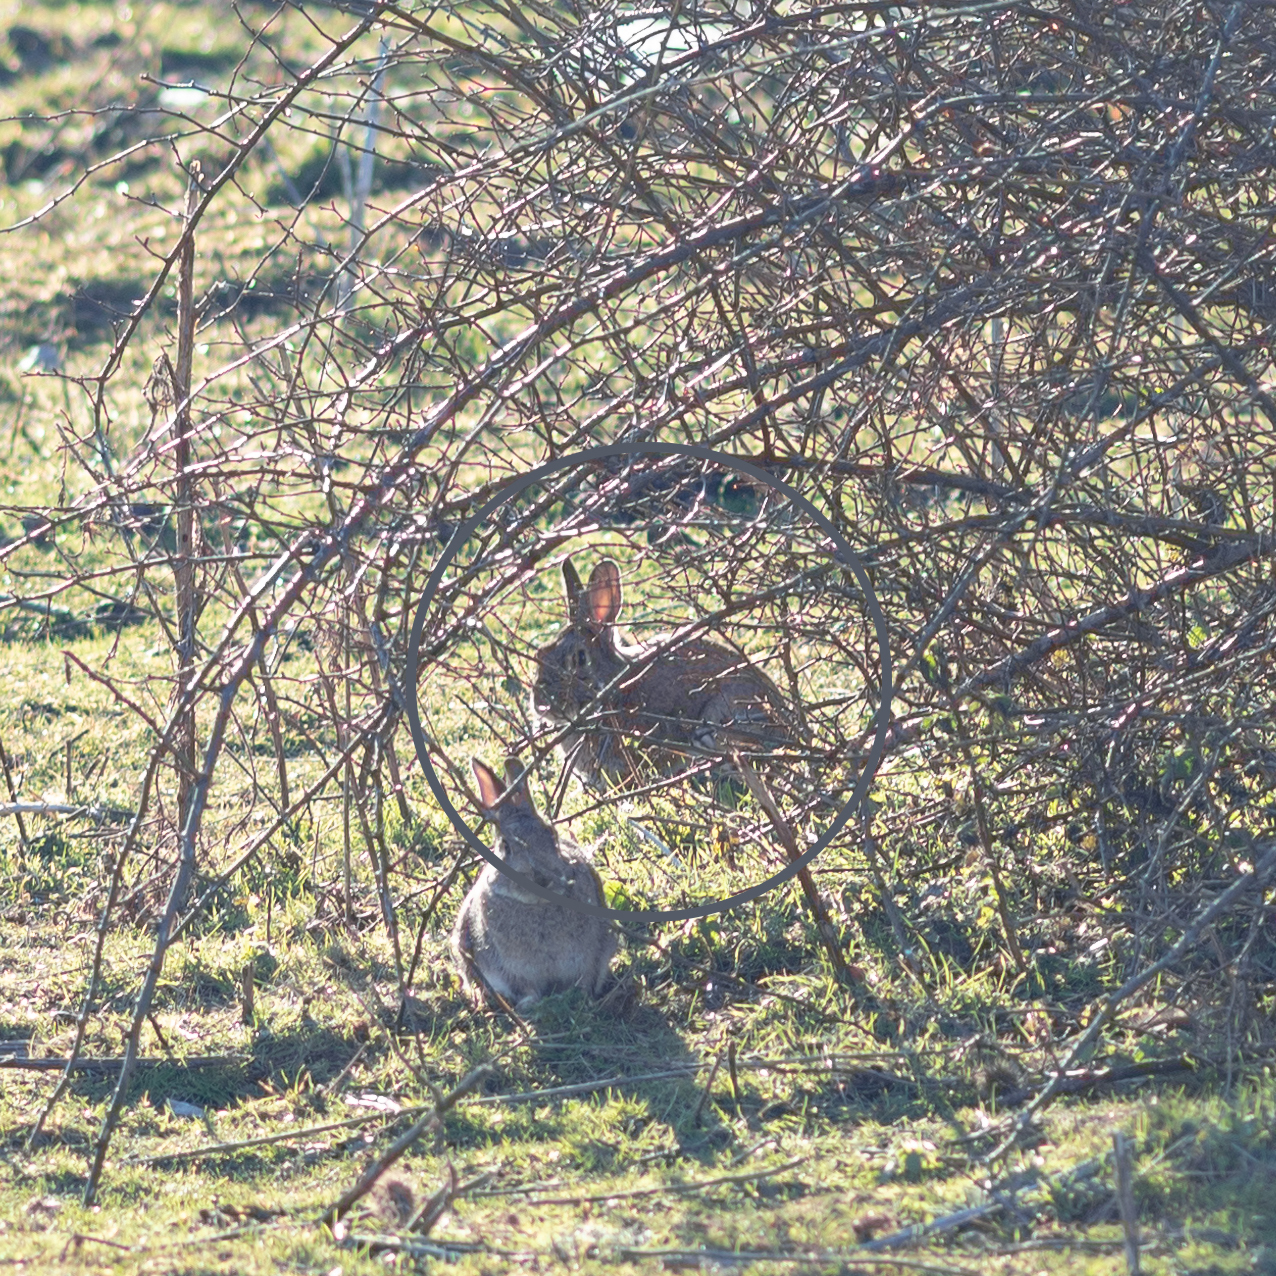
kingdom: Animalia
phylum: Chordata
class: Mammalia
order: Lagomorpha
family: Leporidae
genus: Oryctolagus
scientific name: Oryctolagus cuniculus
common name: European rabbit
